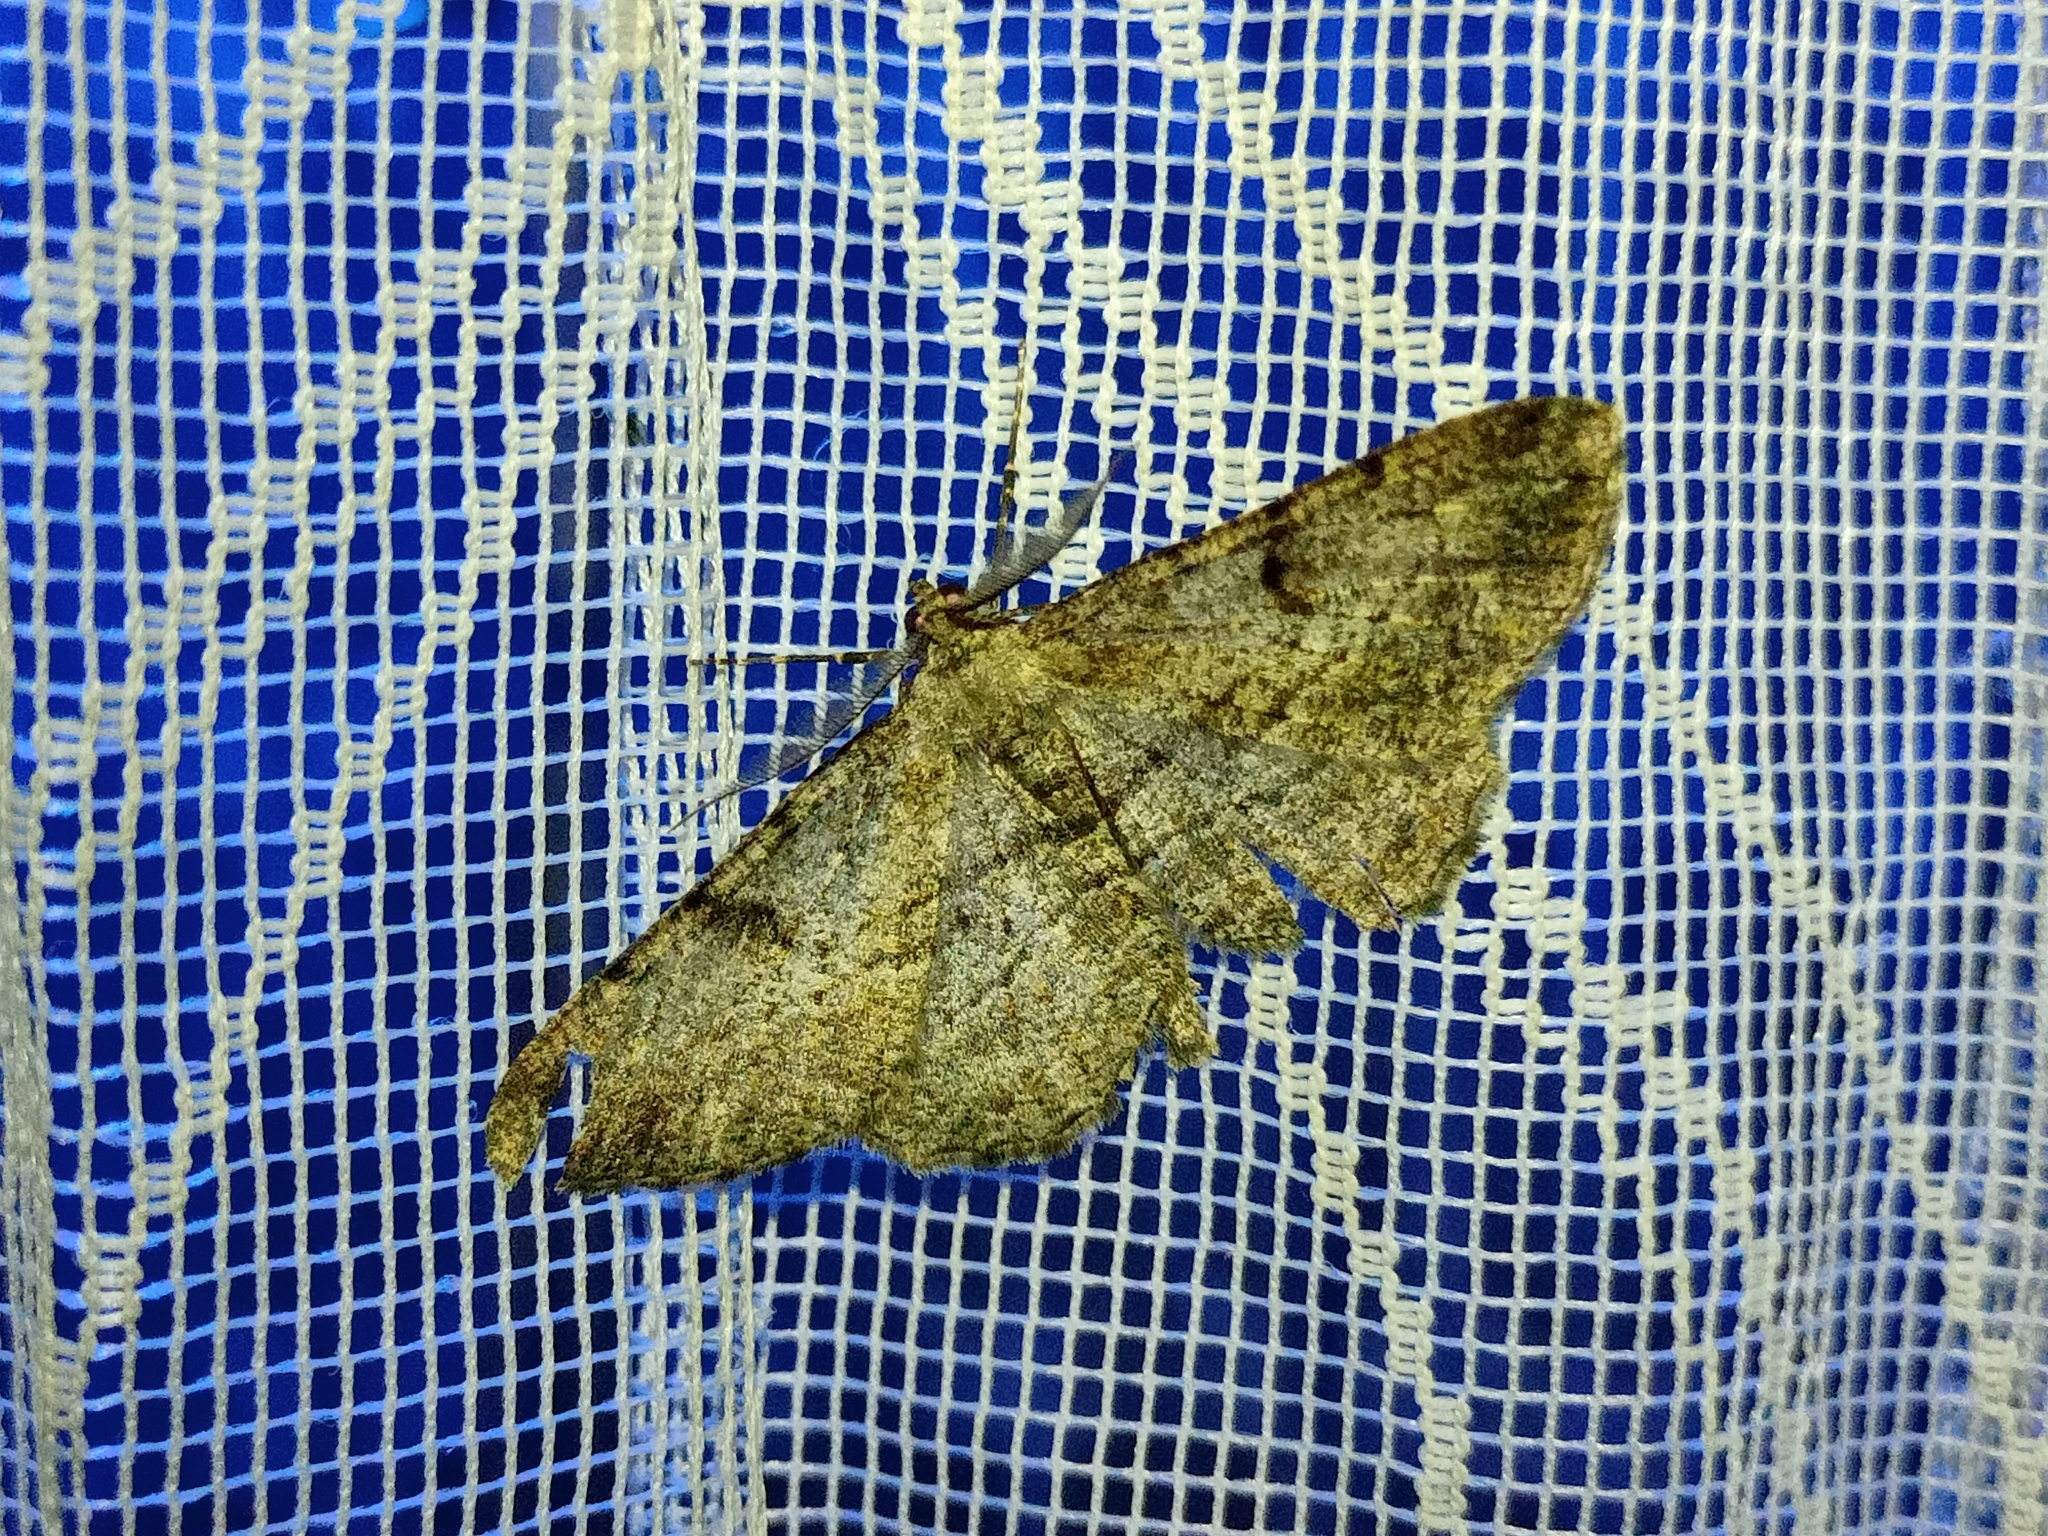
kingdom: Animalia
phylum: Arthropoda
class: Insecta
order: Lepidoptera
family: Geometridae
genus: Peribatodes
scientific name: Peribatodes rhomboidaria
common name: Willow beauty
